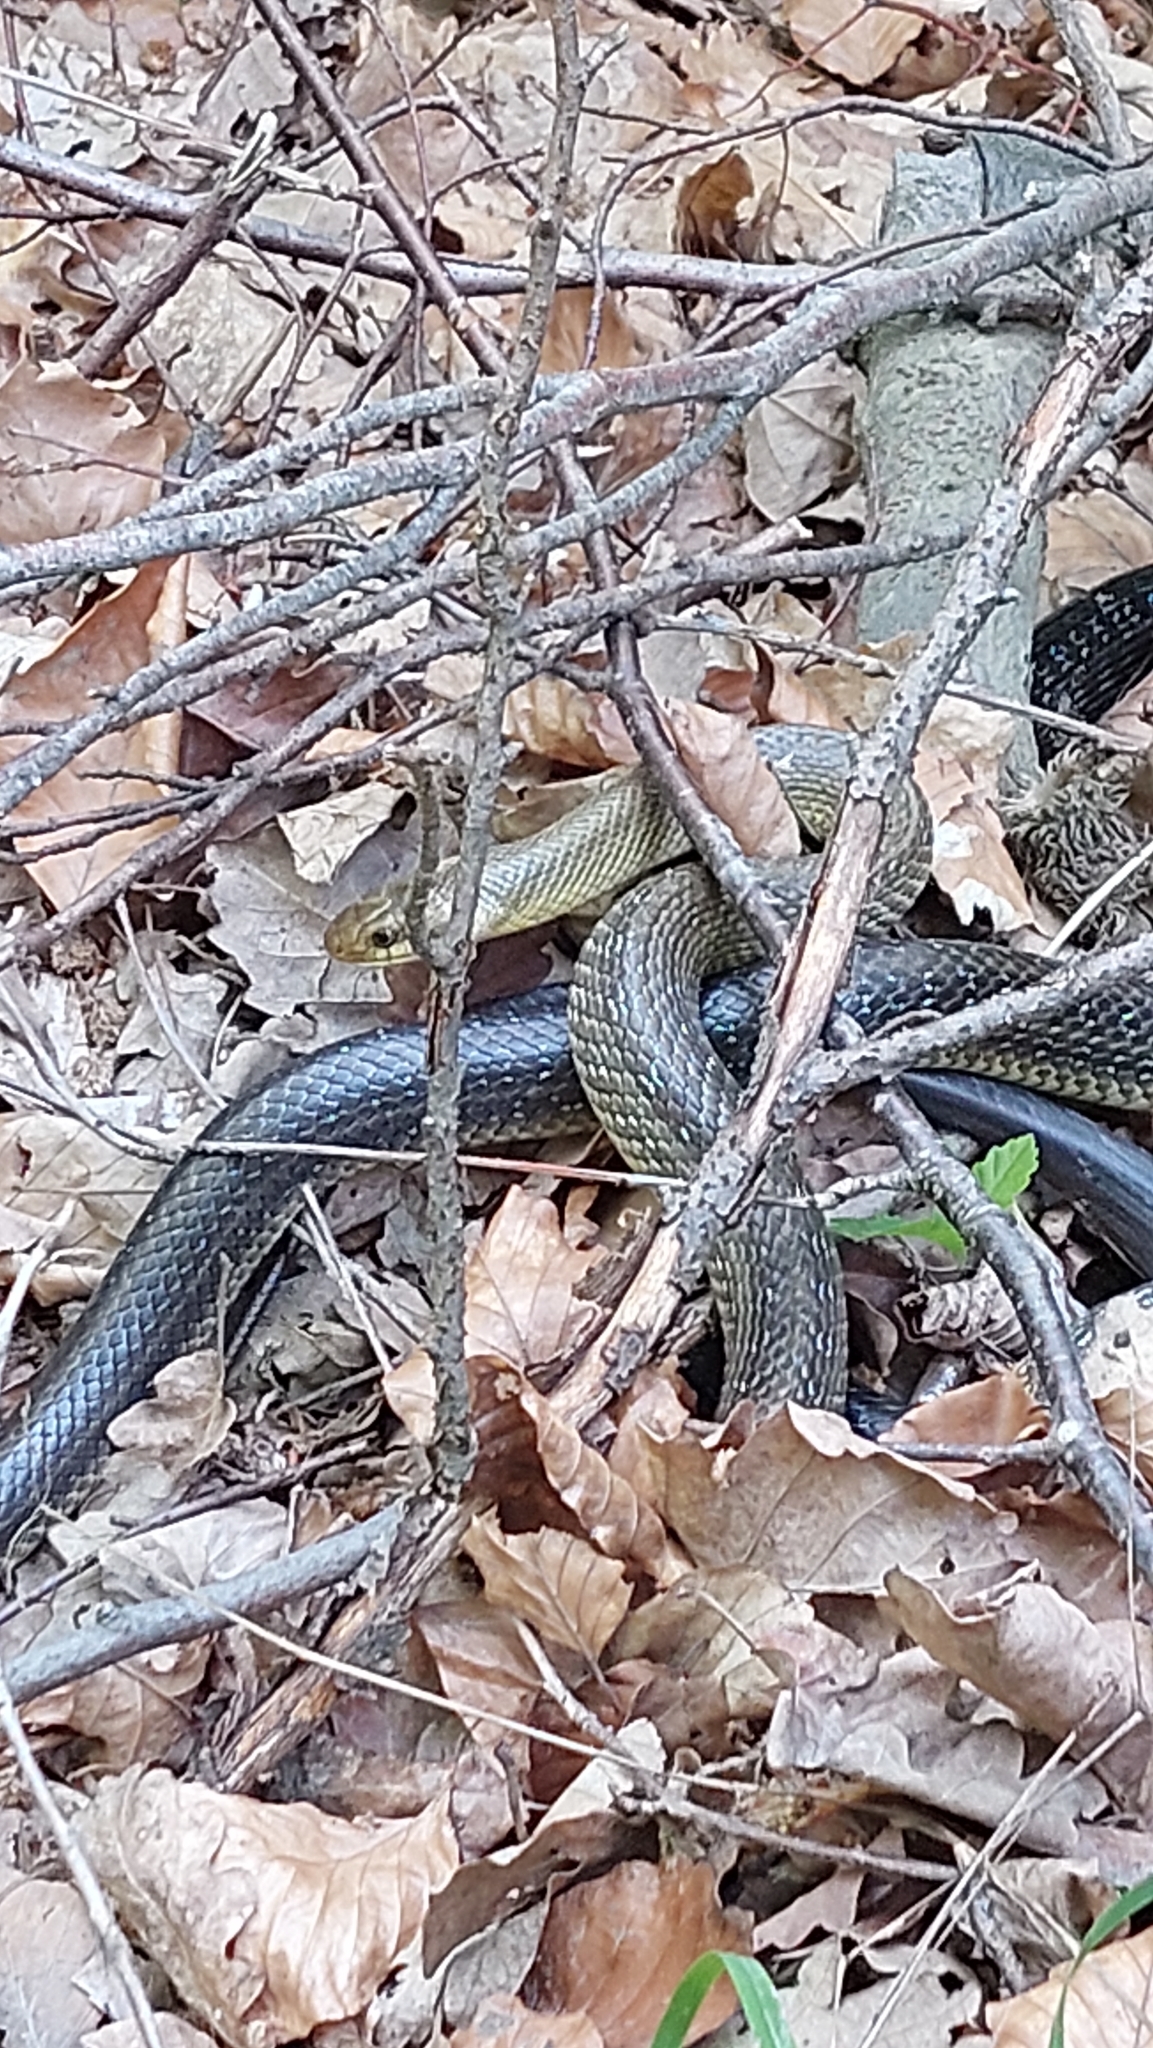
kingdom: Animalia
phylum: Chordata
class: Squamata
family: Colubridae
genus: Zamenis
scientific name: Zamenis longissimus
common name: Aesculapean snake
